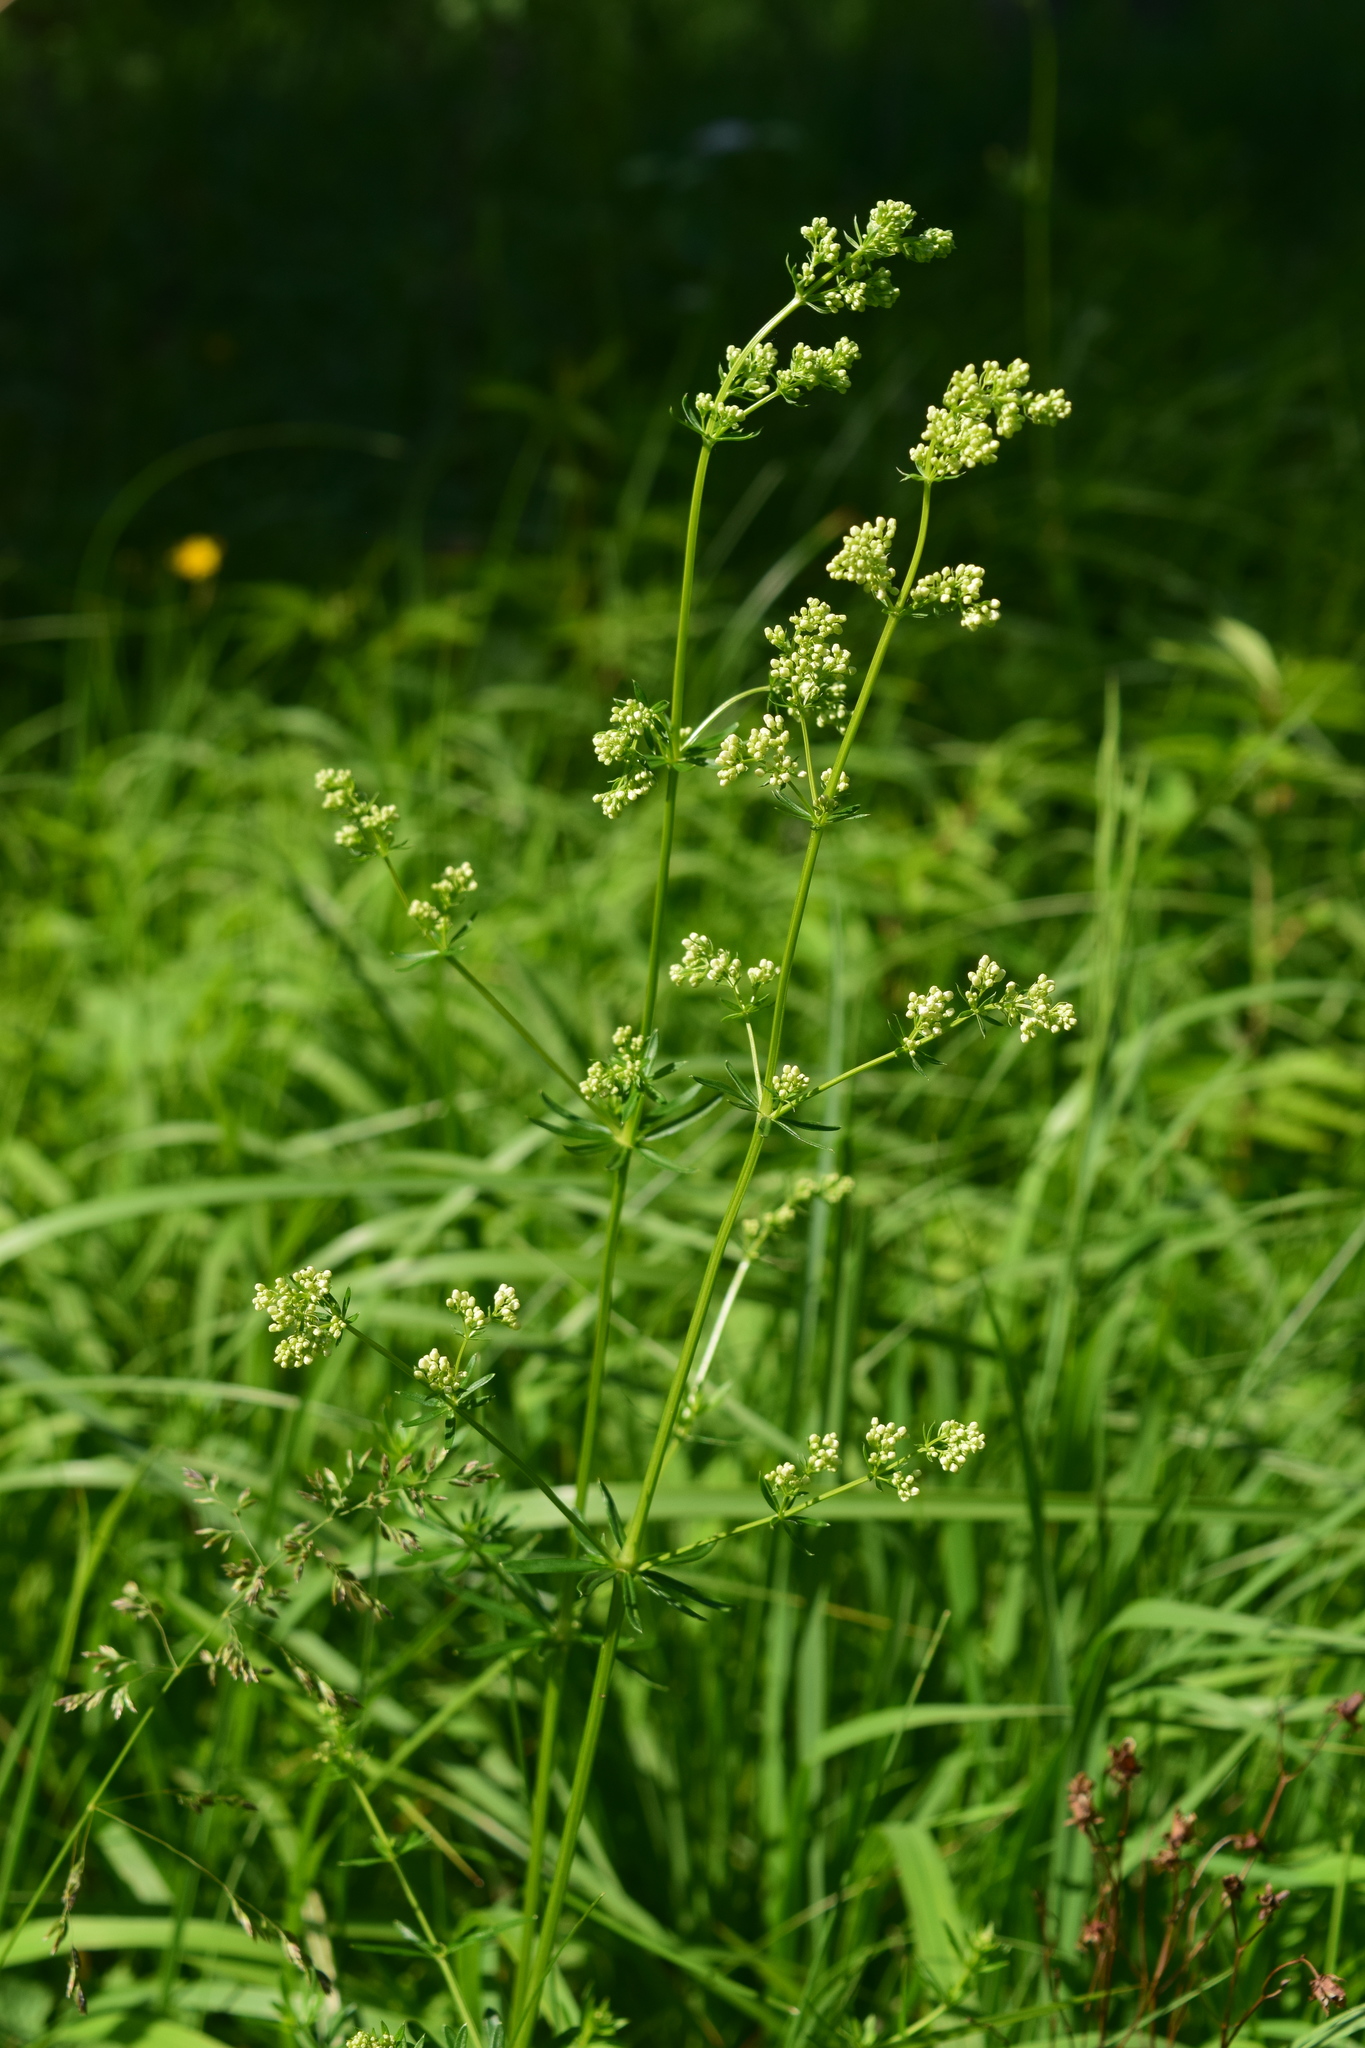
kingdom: Plantae
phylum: Tracheophyta
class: Magnoliopsida
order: Gentianales
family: Rubiaceae
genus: Galium
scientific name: Galium mollugo
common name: Hedge bedstraw
